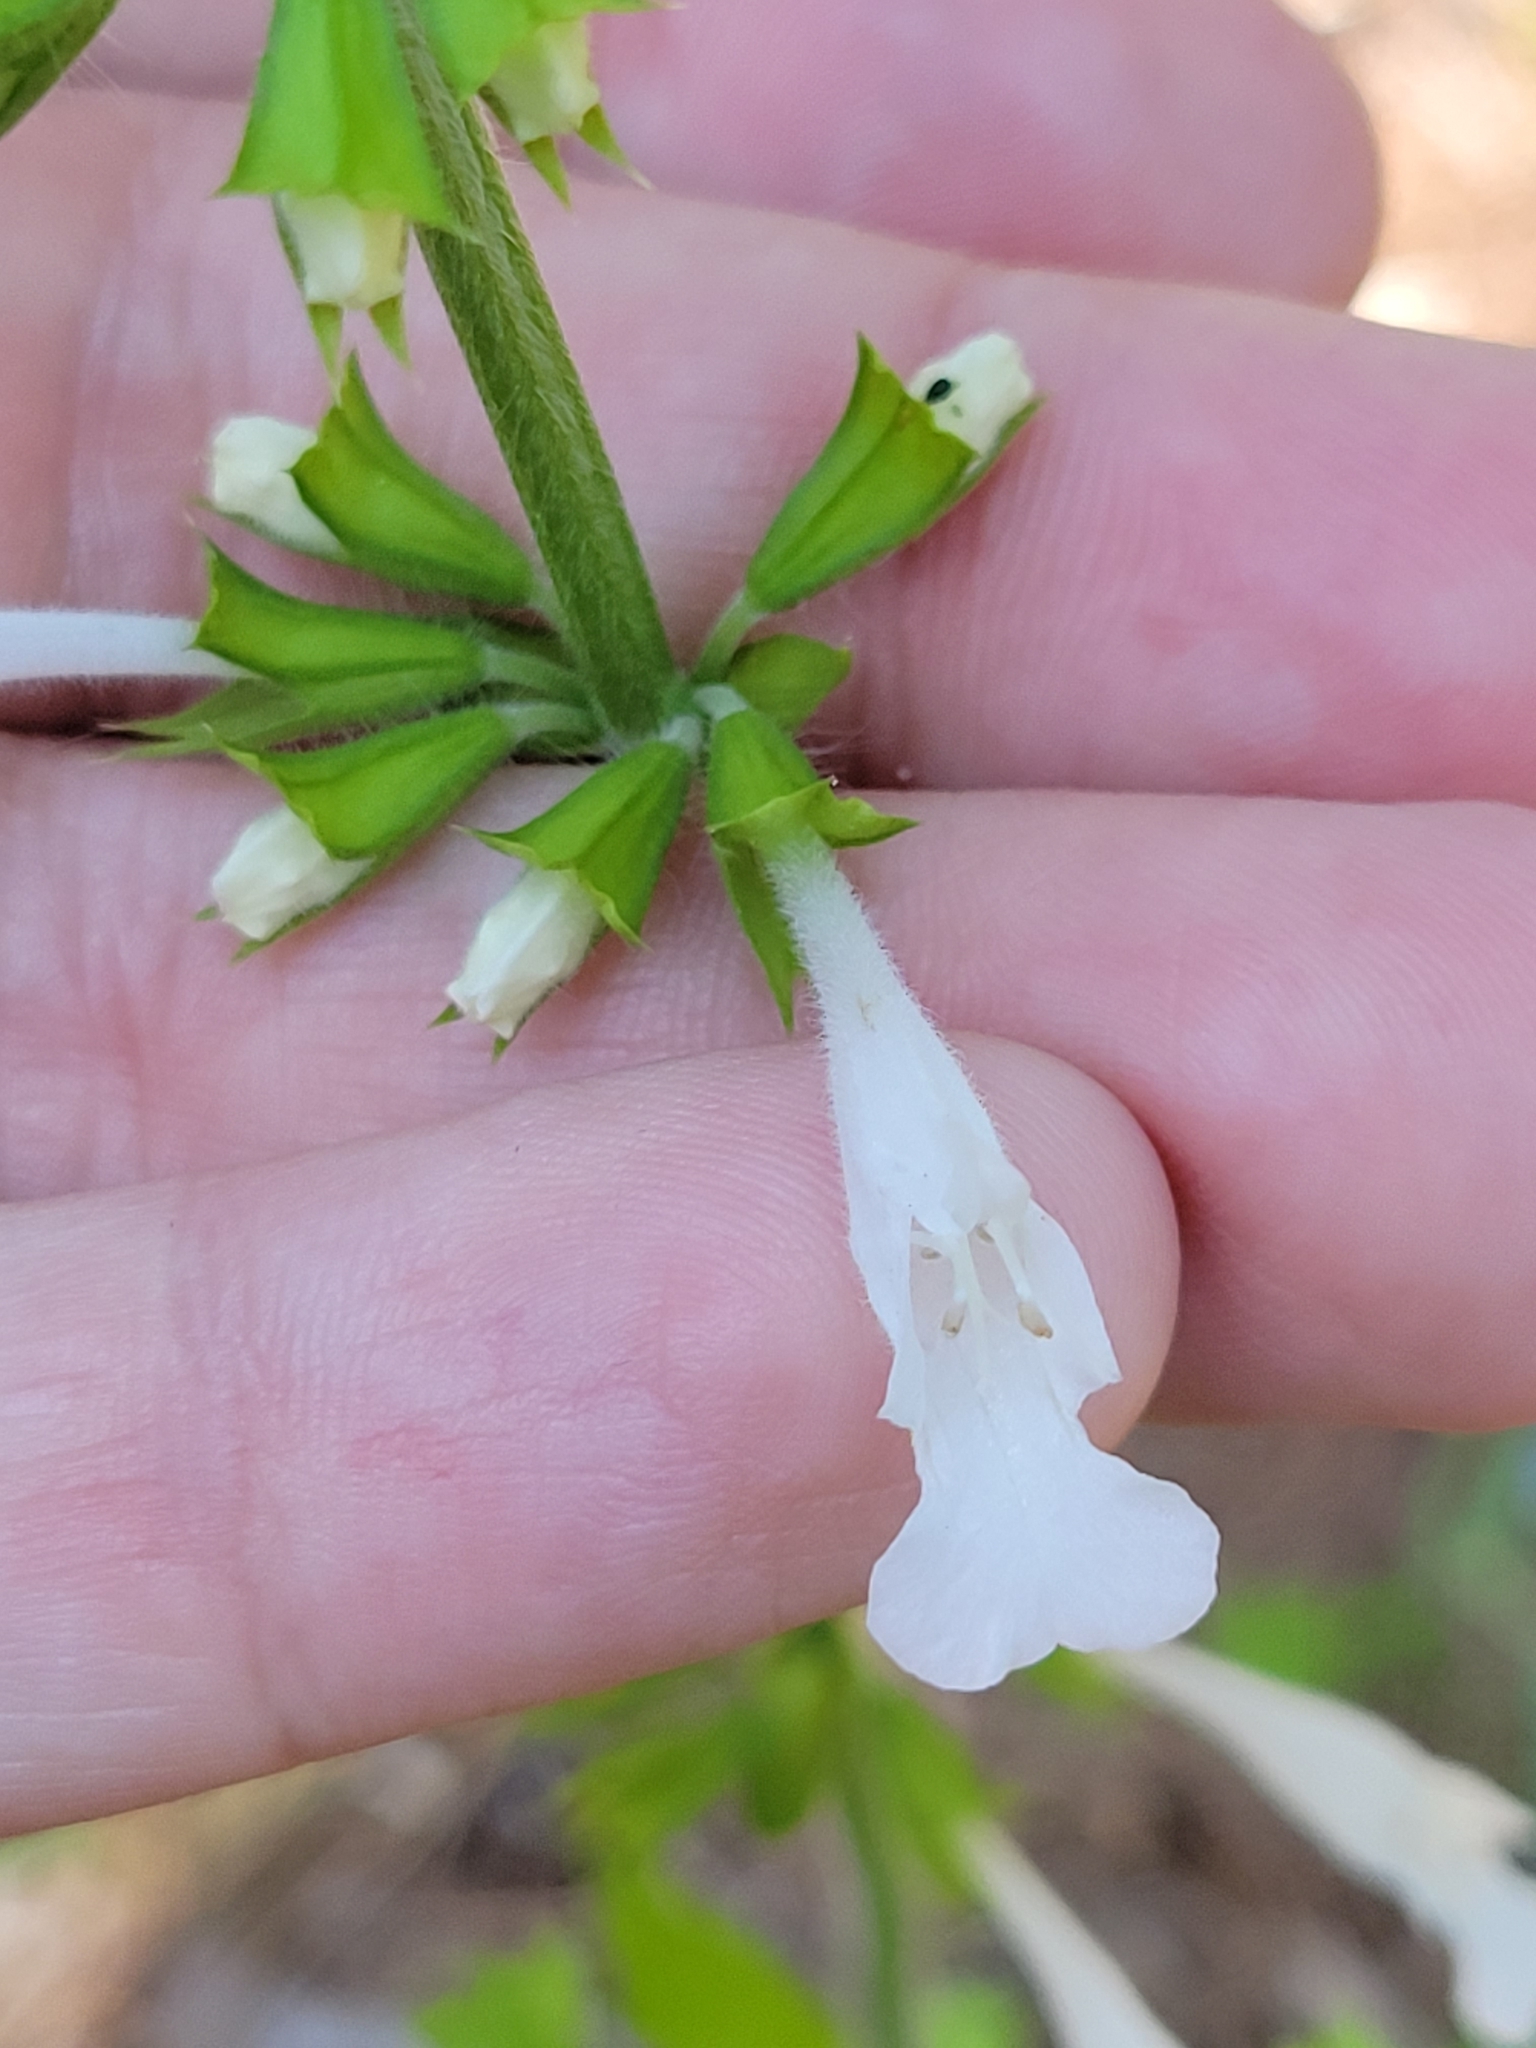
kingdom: Plantae
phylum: Tracheophyta
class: Magnoliopsida
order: Lamiales
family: Lamiaceae
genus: Salvia
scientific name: Salvia lyrata
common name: Cancerweed
